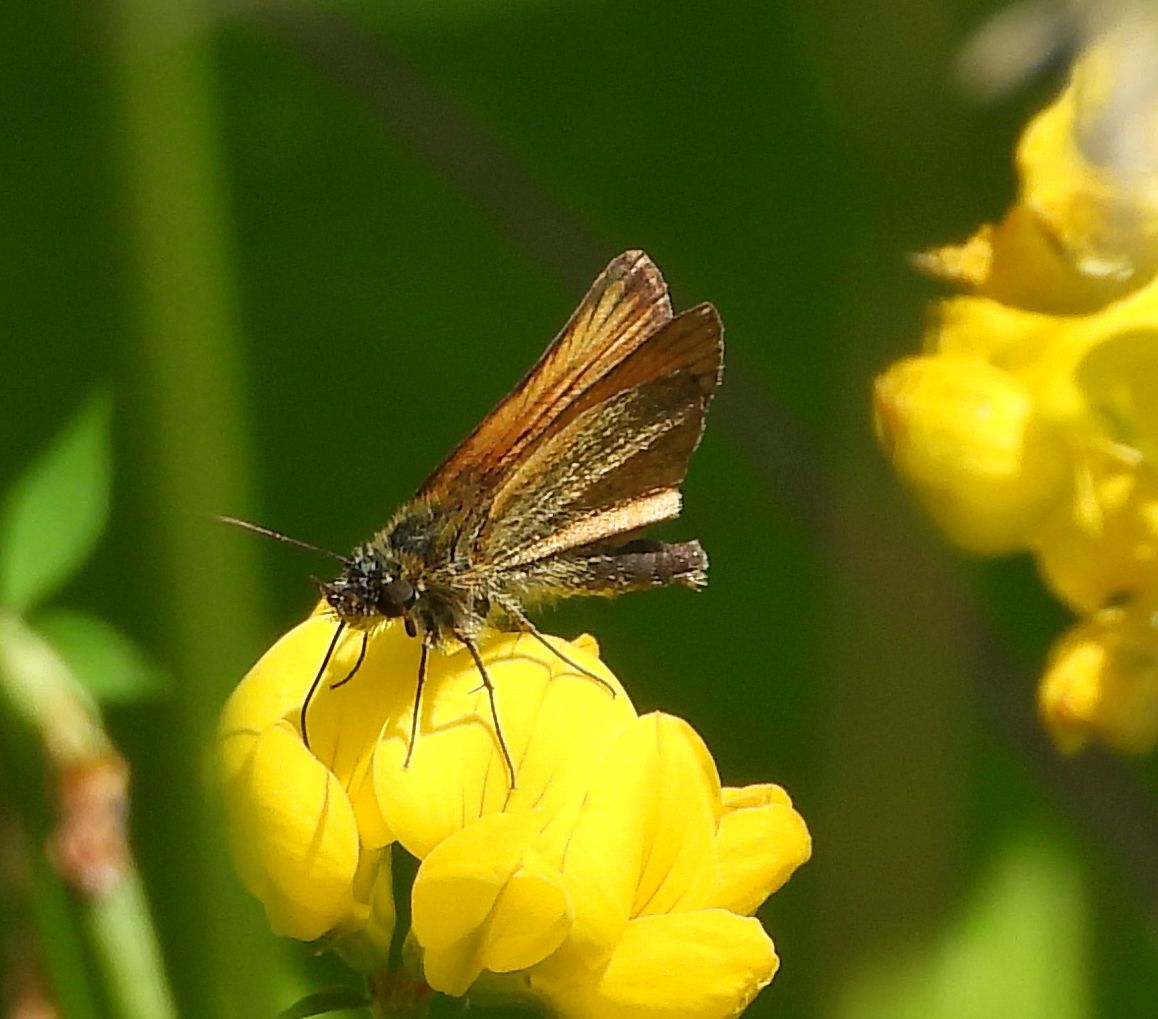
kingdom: Animalia
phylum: Arthropoda
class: Insecta
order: Lepidoptera
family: Hesperiidae
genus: Thymelicus
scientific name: Thymelicus lineola
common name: Essex skipper
